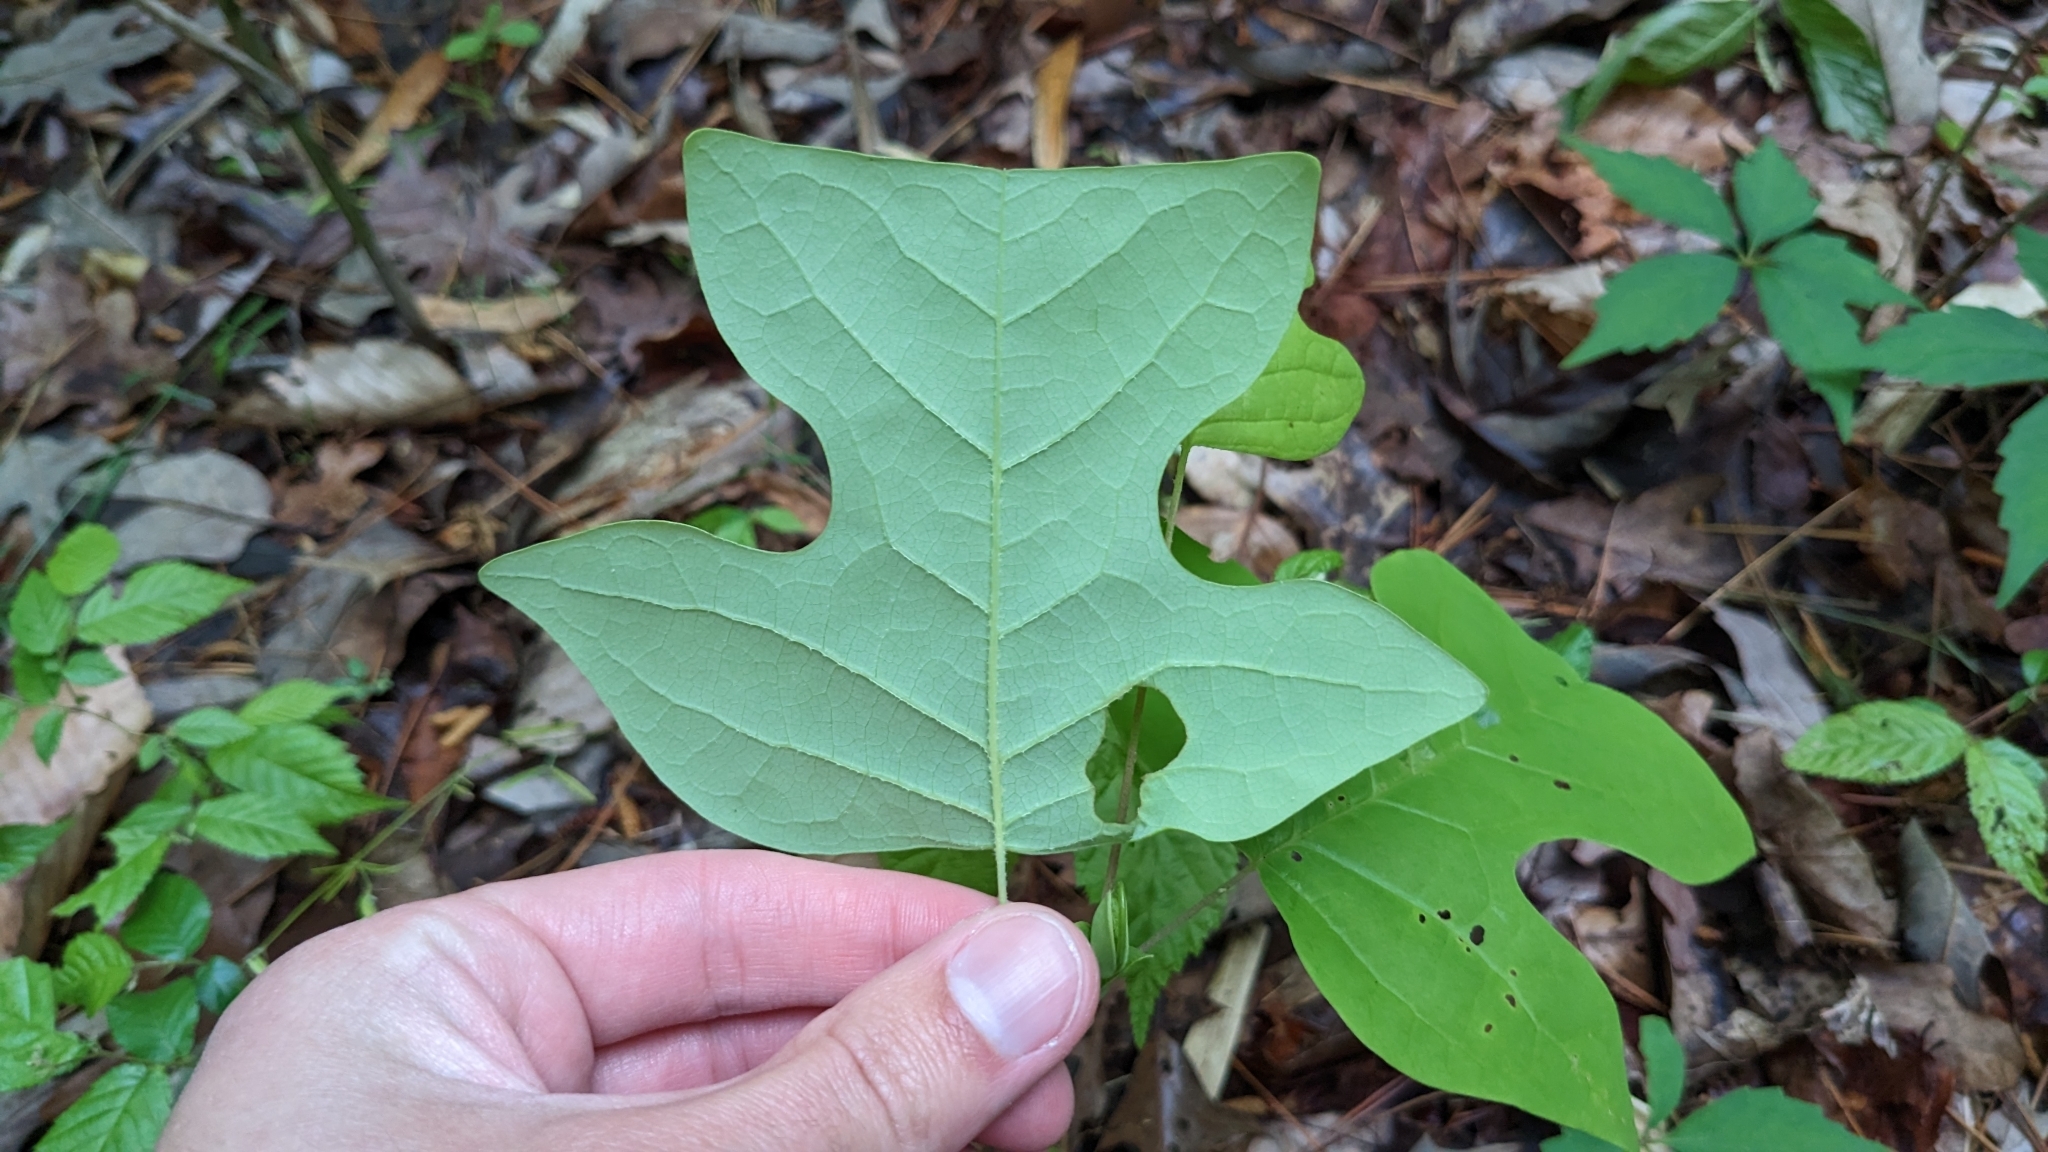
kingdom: Plantae
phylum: Tracheophyta
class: Magnoliopsida
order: Magnoliales
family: Magnoliaceae
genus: Liriodendron
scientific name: Liriodendron tulipifera
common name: Tulip tree
